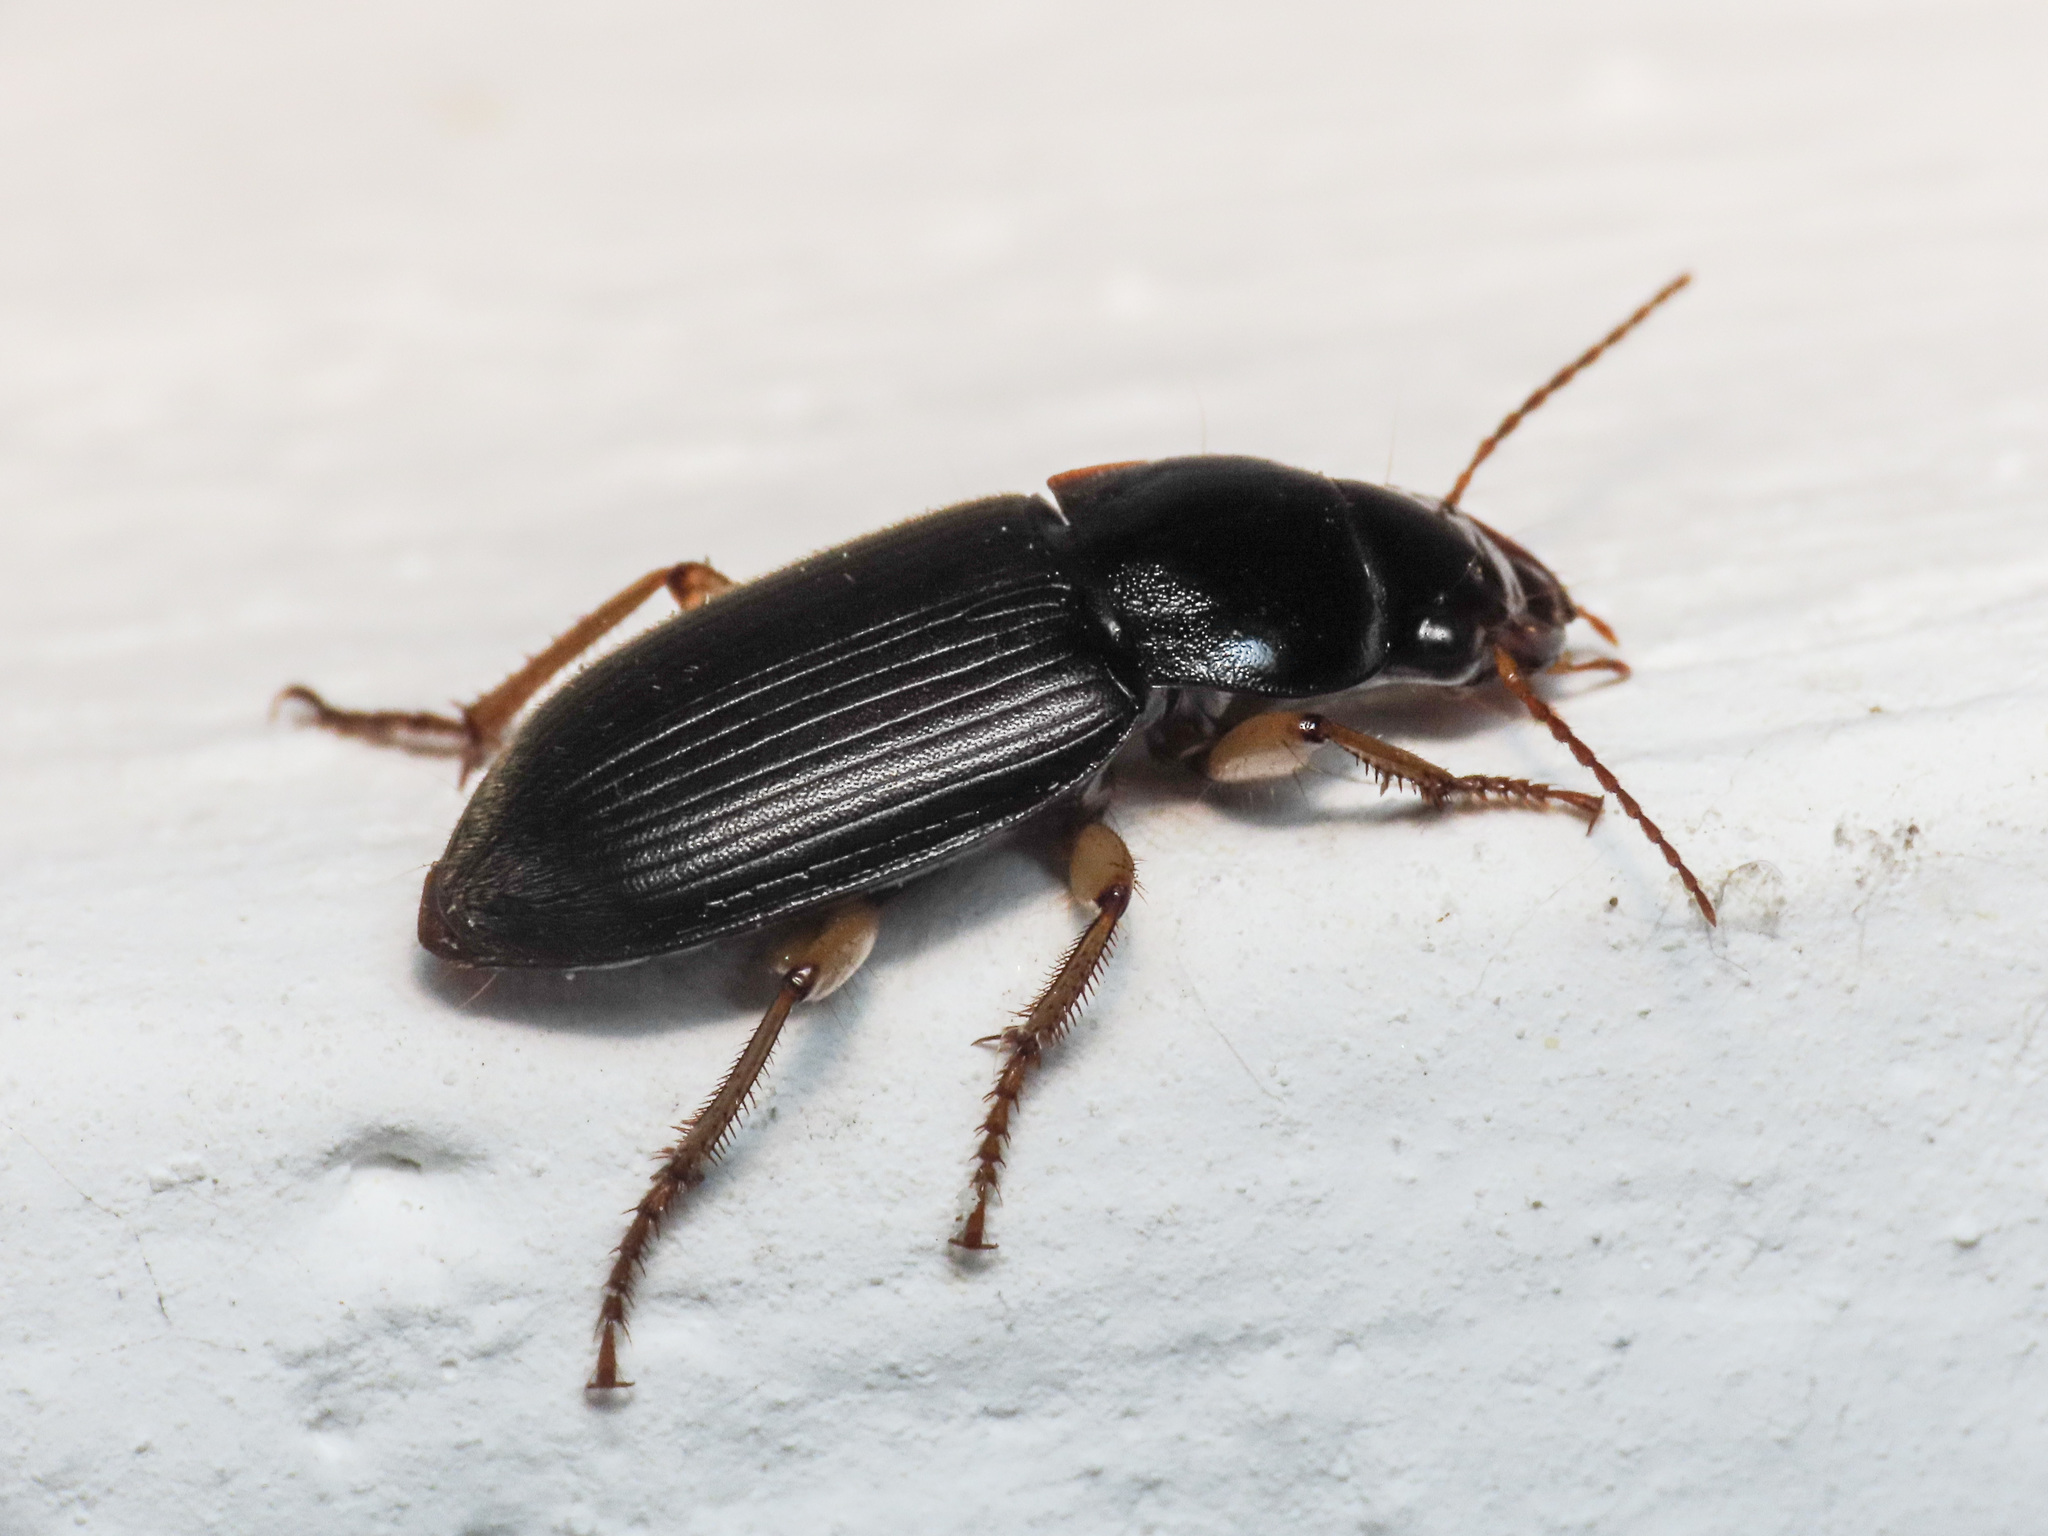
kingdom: Animalia
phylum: Arthropoda
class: Insecta
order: Coleoptera
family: Carabidae
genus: Harpalus
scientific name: Harpalus rufipes
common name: Strawberry harp ground beetle
